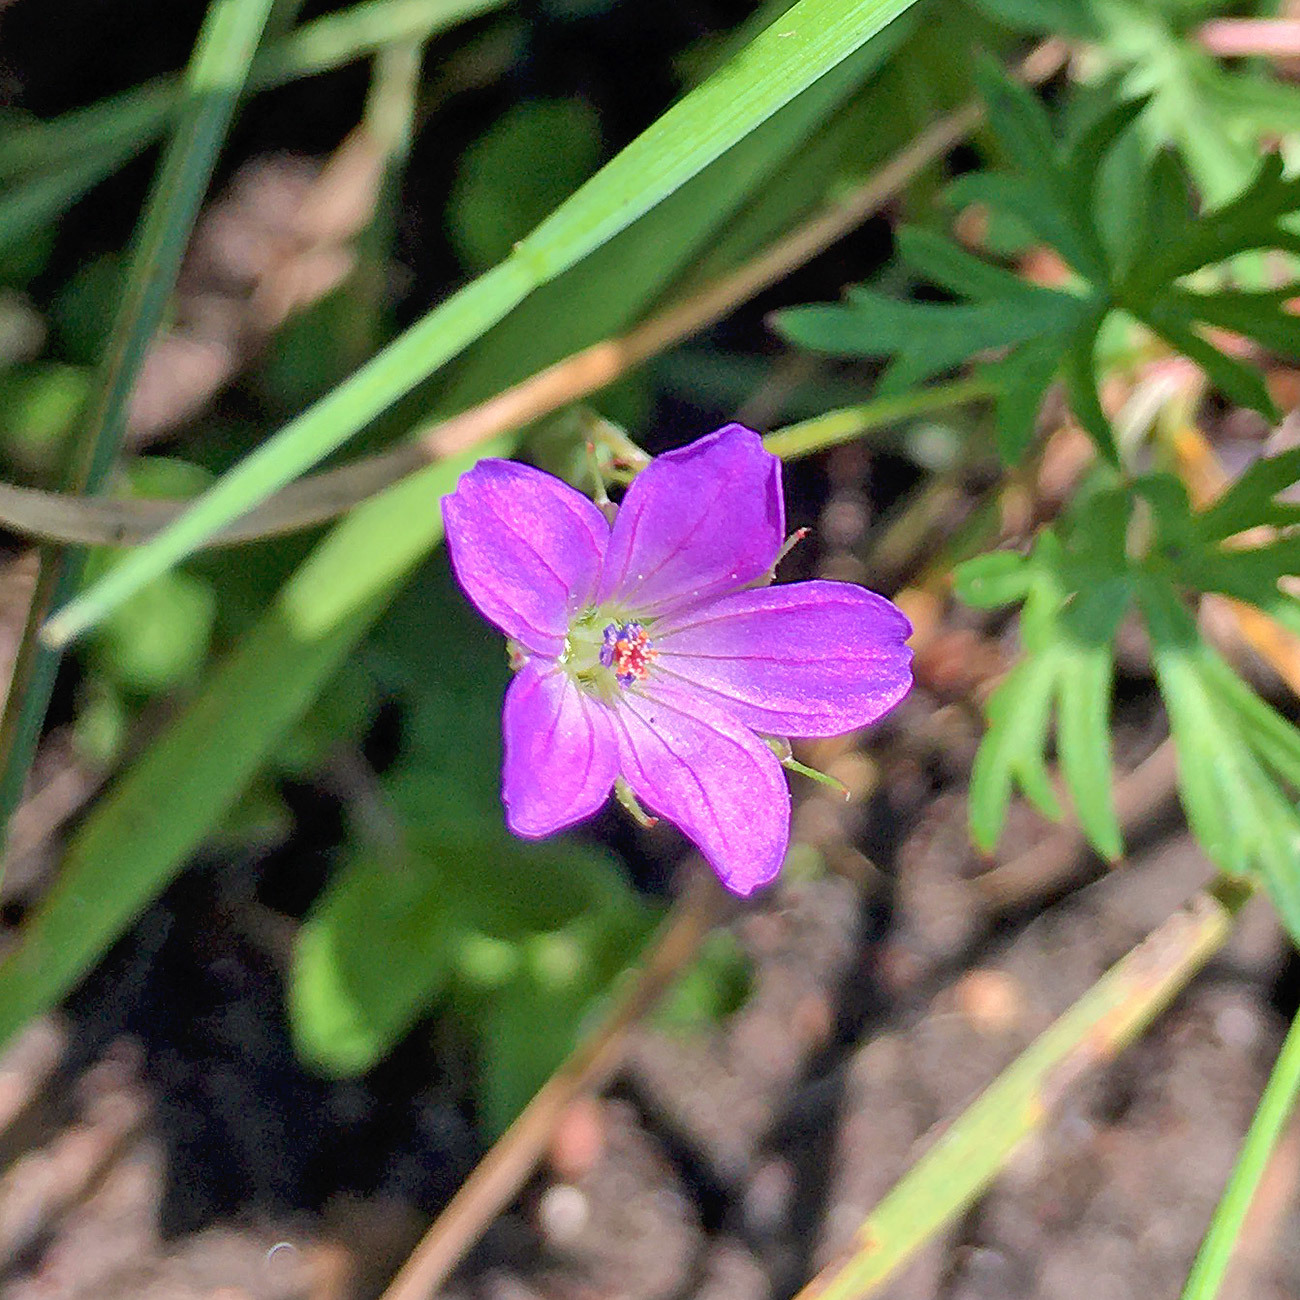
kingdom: Plantae
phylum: Tracheophyta
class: Magnoliopsida
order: Geraniales
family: Geraniaceae
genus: Geranium
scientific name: Geranium columbinum
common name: Long-stalked crane's-bill
